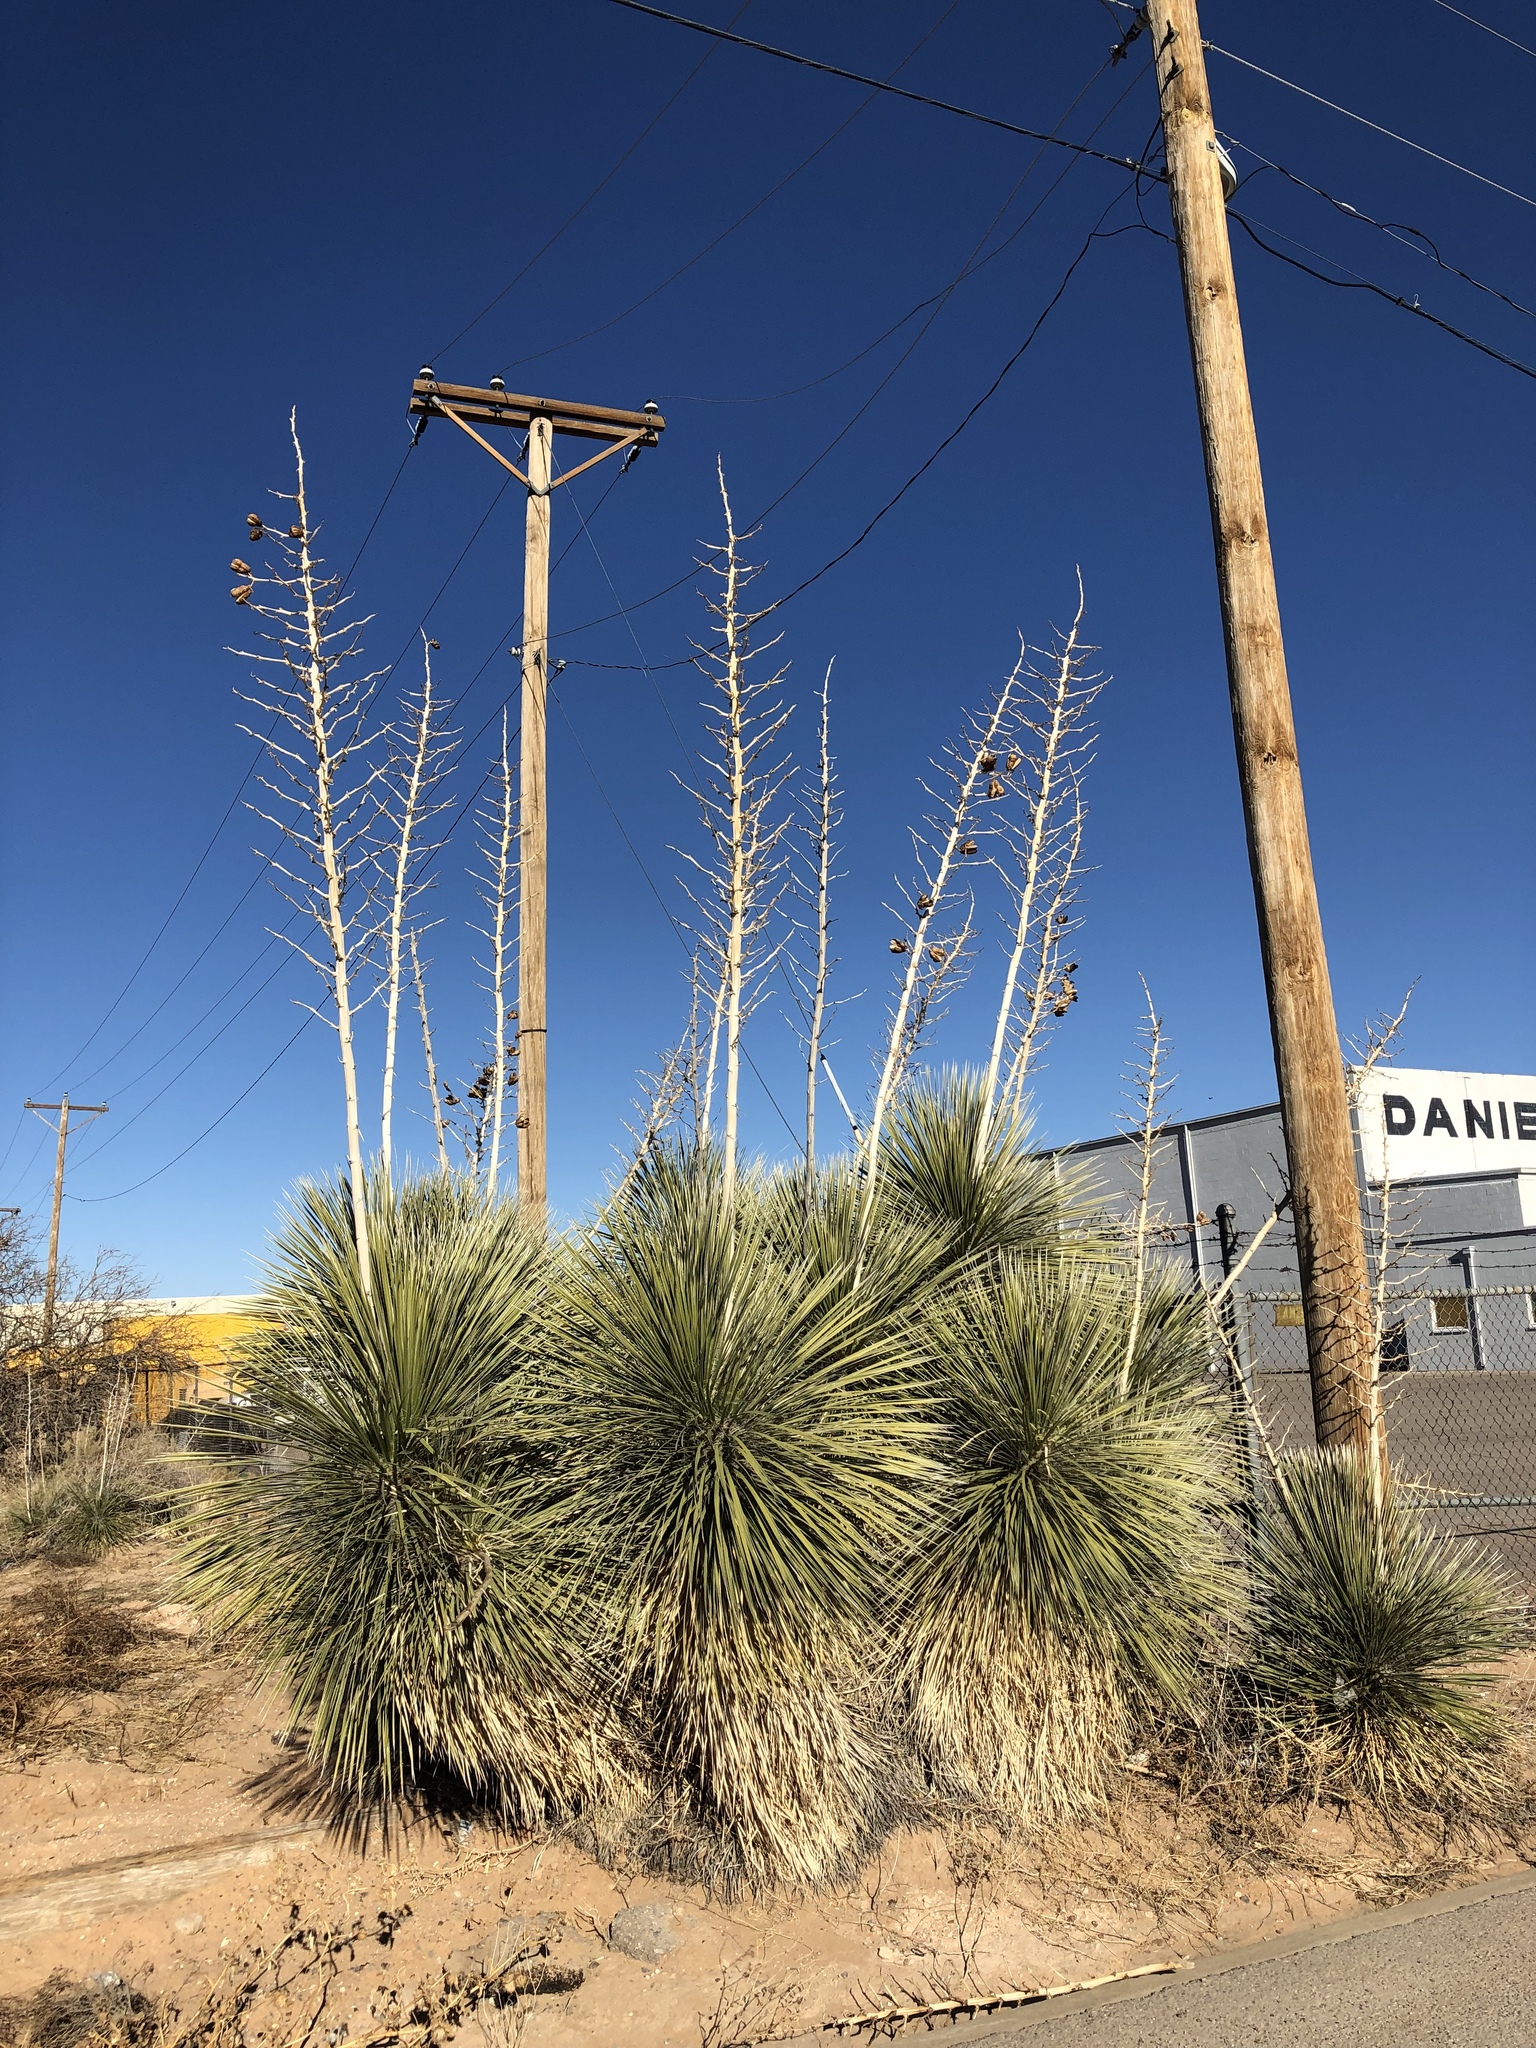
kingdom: Plantae
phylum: Tracheophyta
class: Liliopsida
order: Asparagales
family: Asparagaceae
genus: Yucca
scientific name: Yucca elata
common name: Palmella
